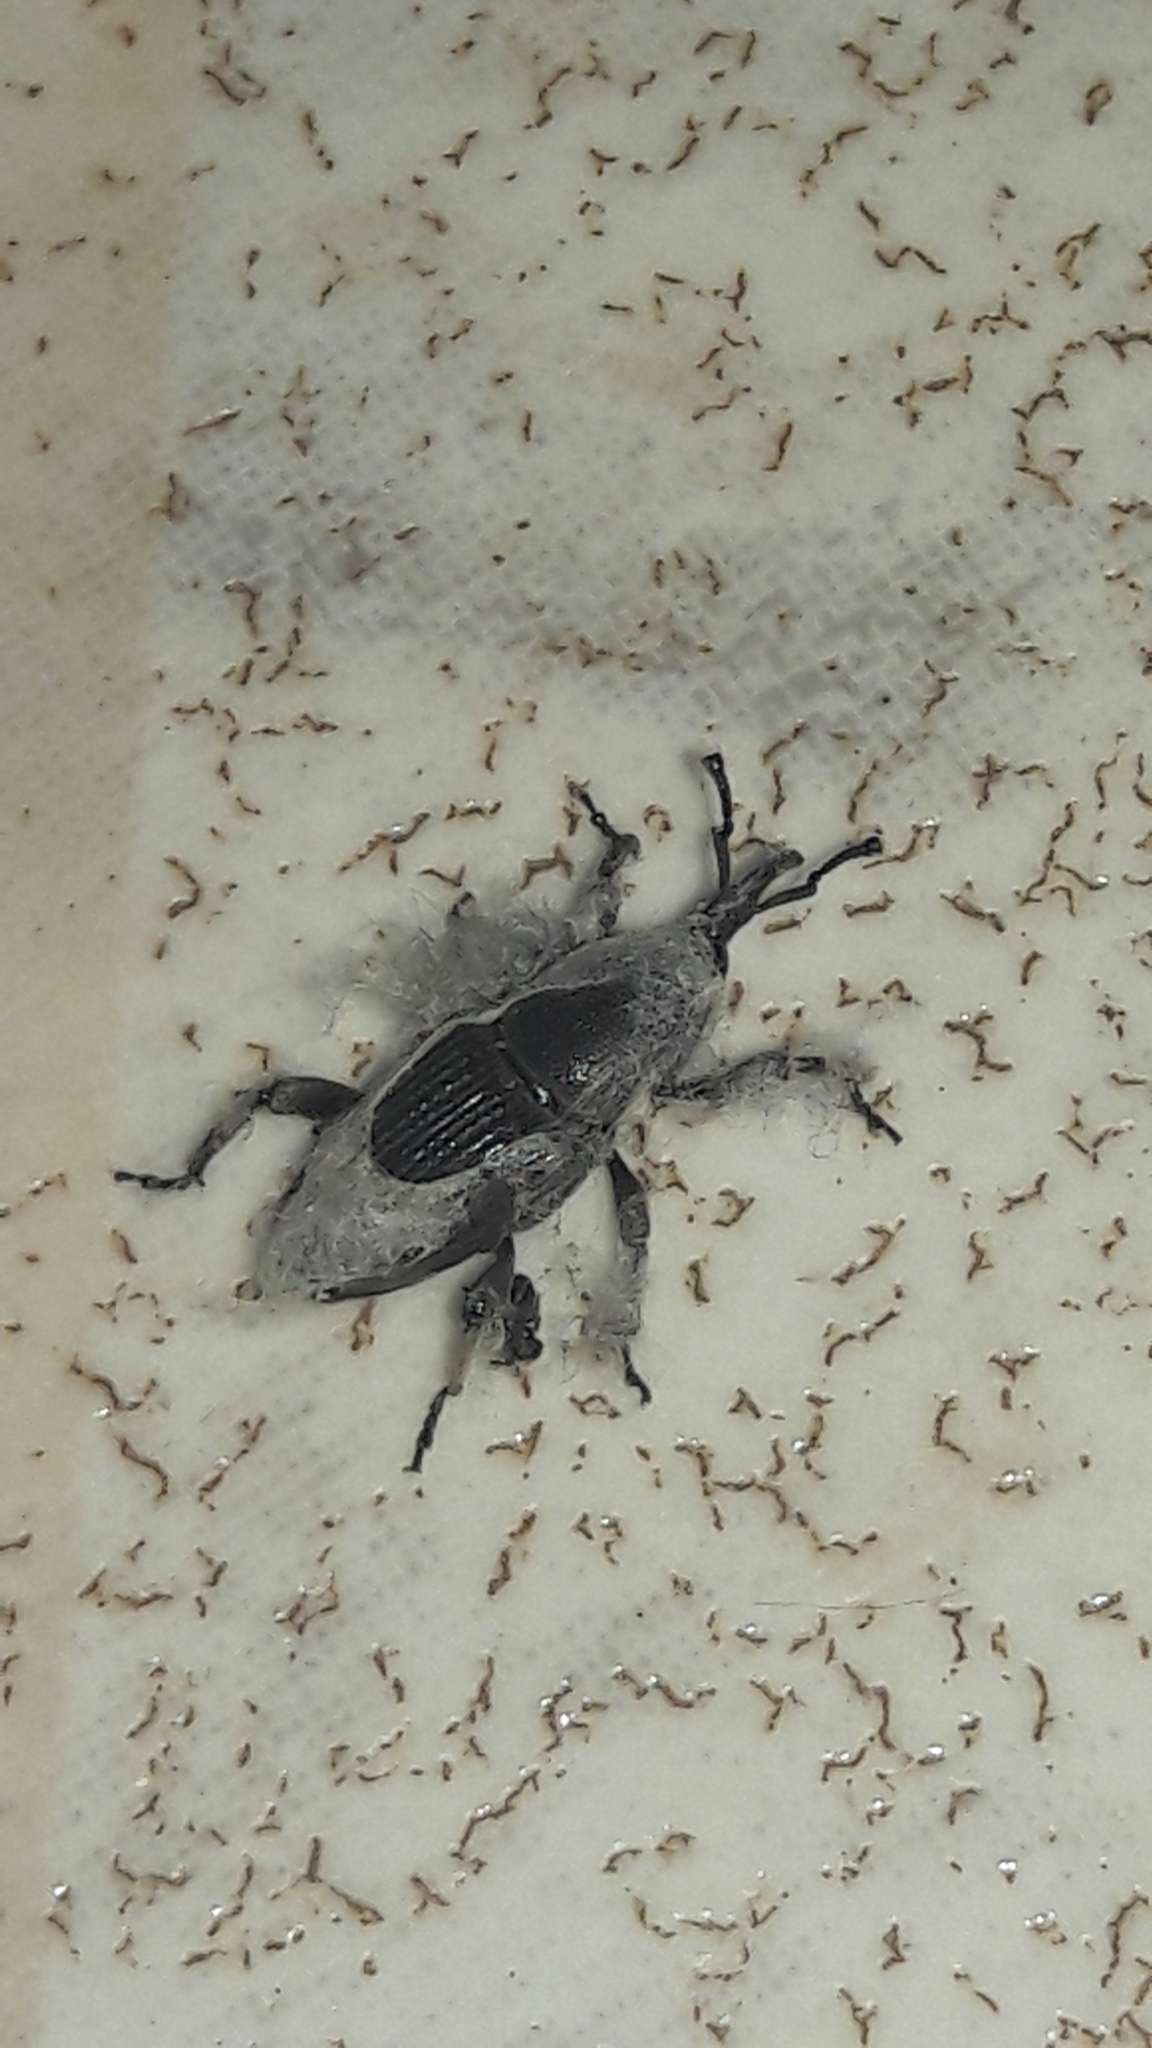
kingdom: Animalia
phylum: Arthropoda
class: Insecta
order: Coleoptera
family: Dryophthoridae
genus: Cosmopolites
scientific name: Cosmopolites sordidus
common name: Palm weevil
